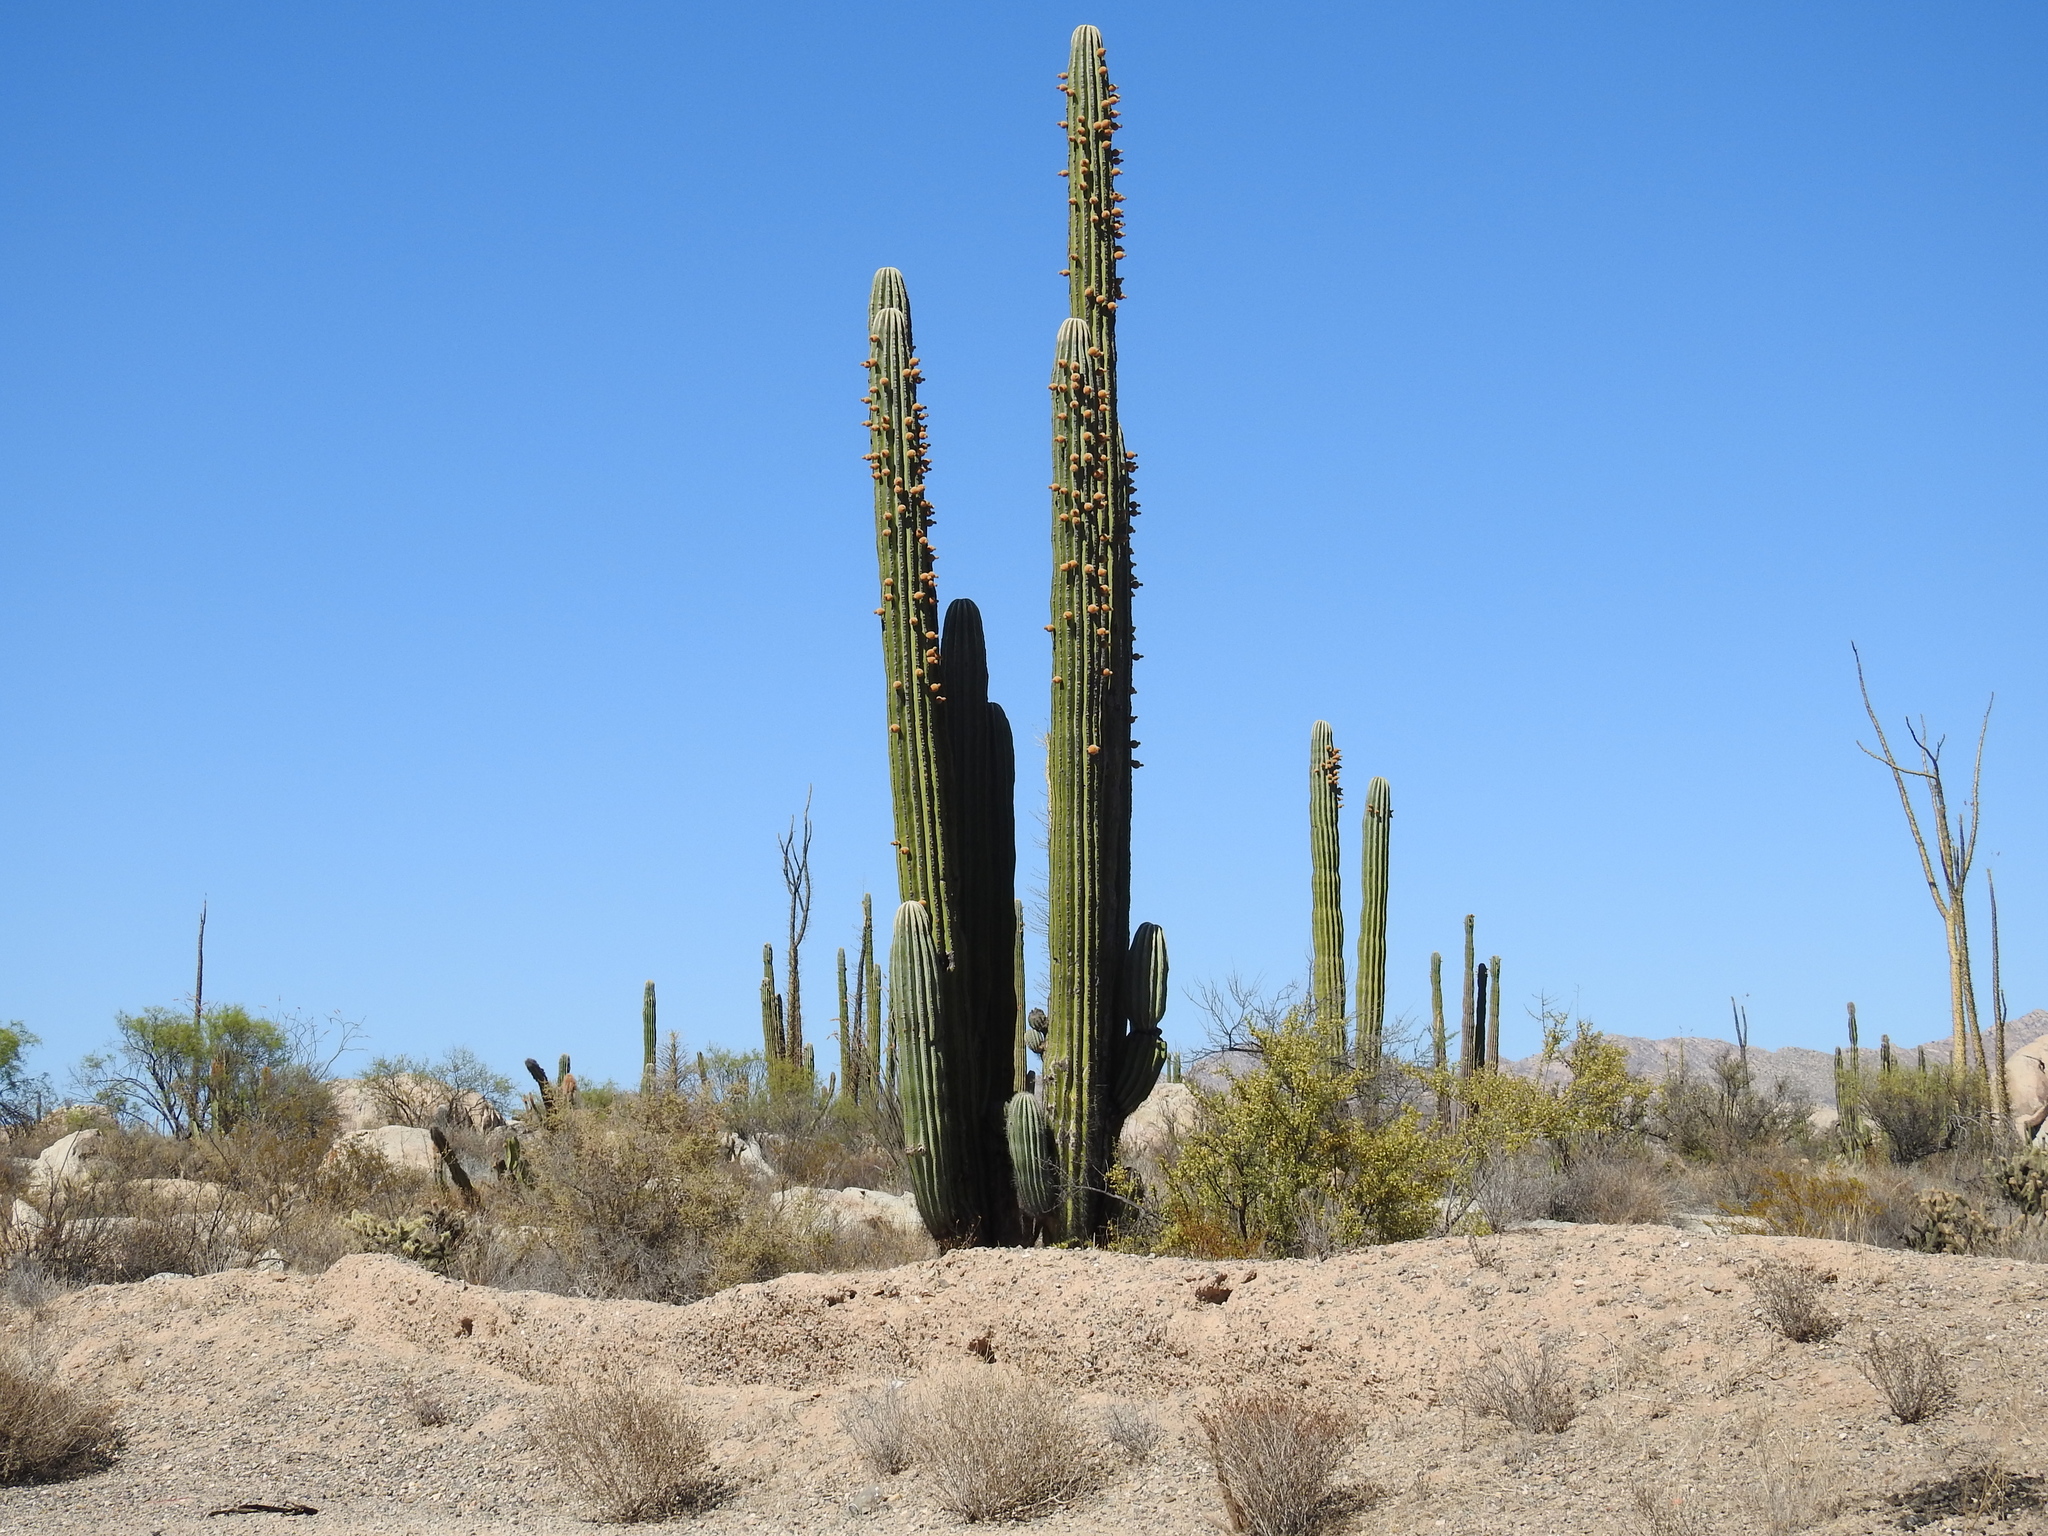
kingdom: Plantae
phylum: Tracheophyta
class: Magnoliopsida
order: Caryophyllales
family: Cactaceae
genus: Pachycereus
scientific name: Pachycereus pringlei
